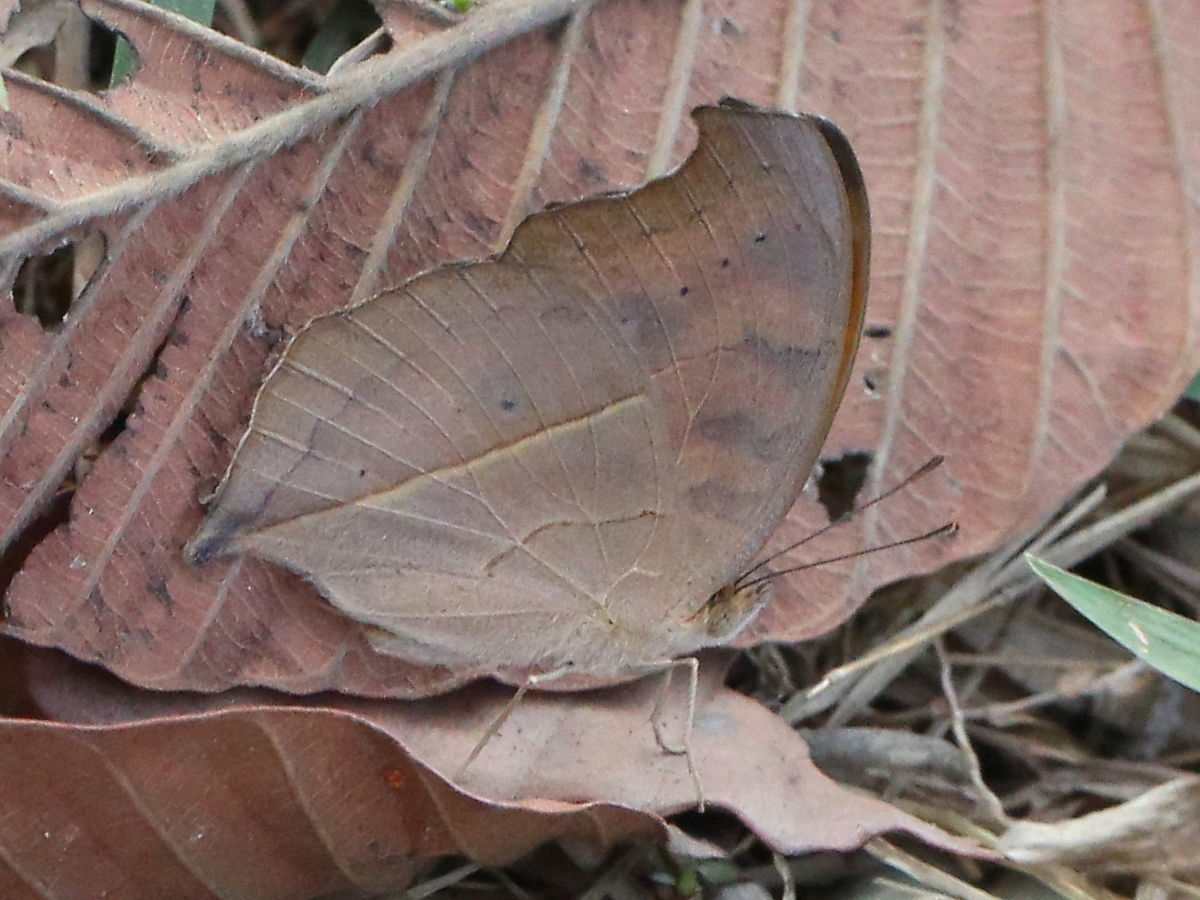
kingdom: Animalia
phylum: Arthropoda
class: Insecta
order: Lepidoptera
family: Nymphalidae
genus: Junonia
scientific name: Junonia iphita
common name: Chocolate pansy
